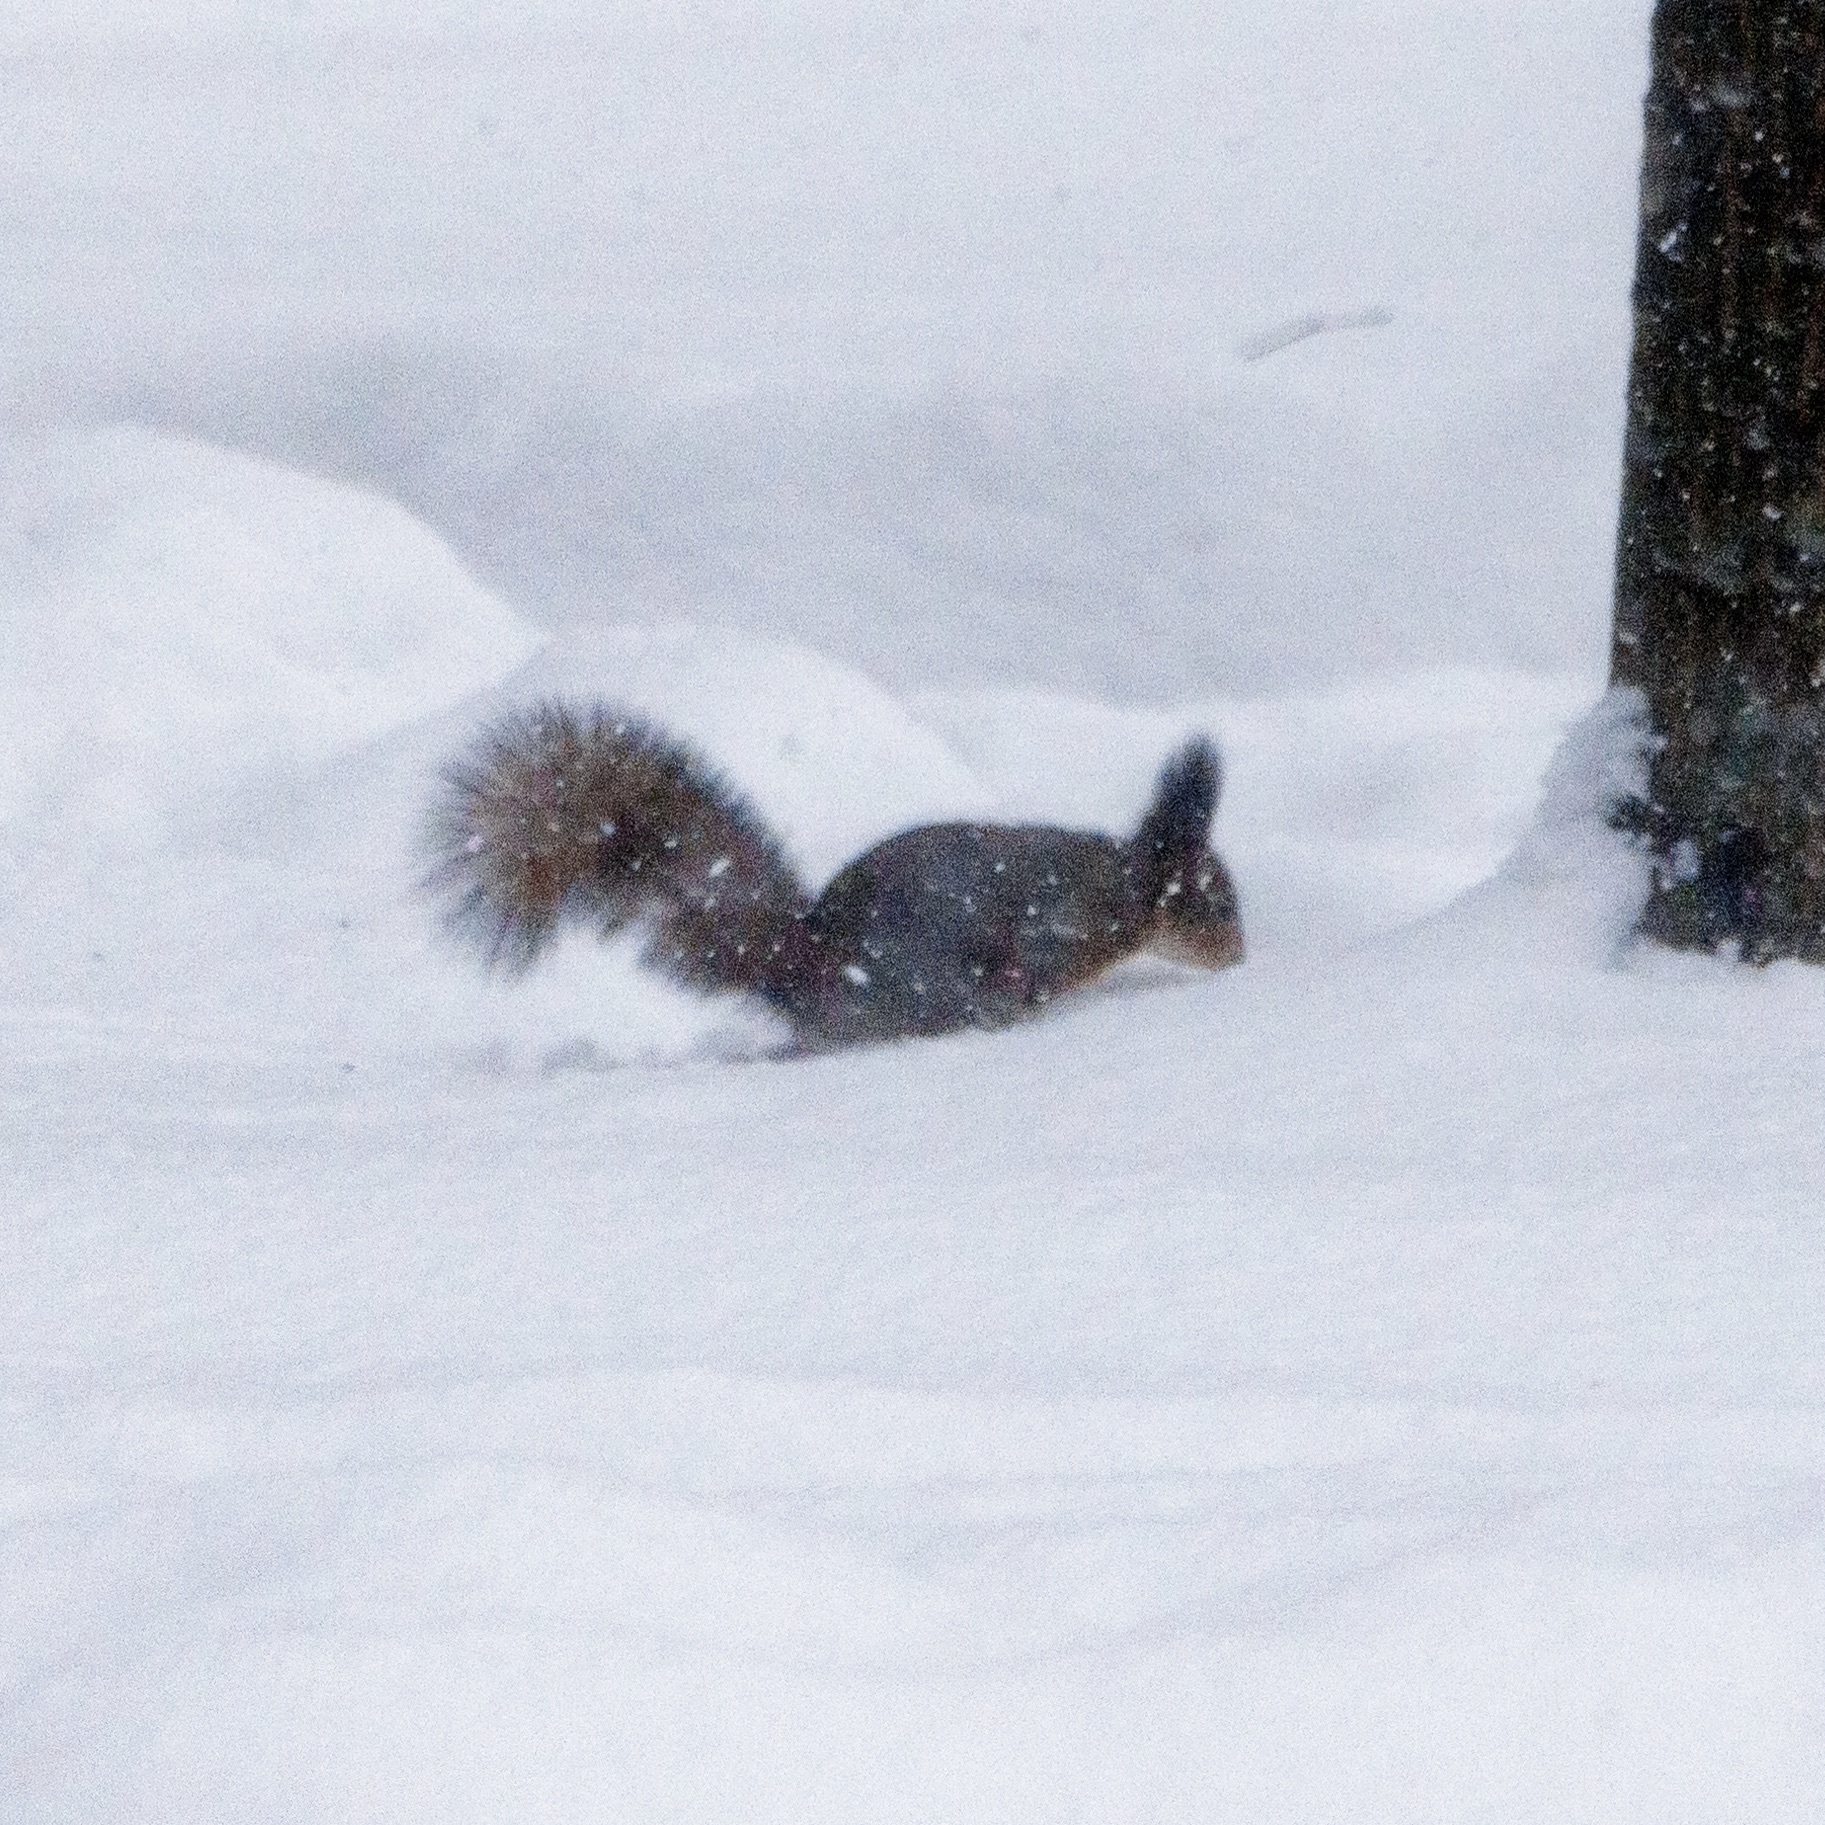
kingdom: Animalia
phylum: Chordata
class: Mammalia
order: Rodentia
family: Sciuridae
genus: Sciurus
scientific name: Sciurus vulgaris
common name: Eurasian red squirrel
